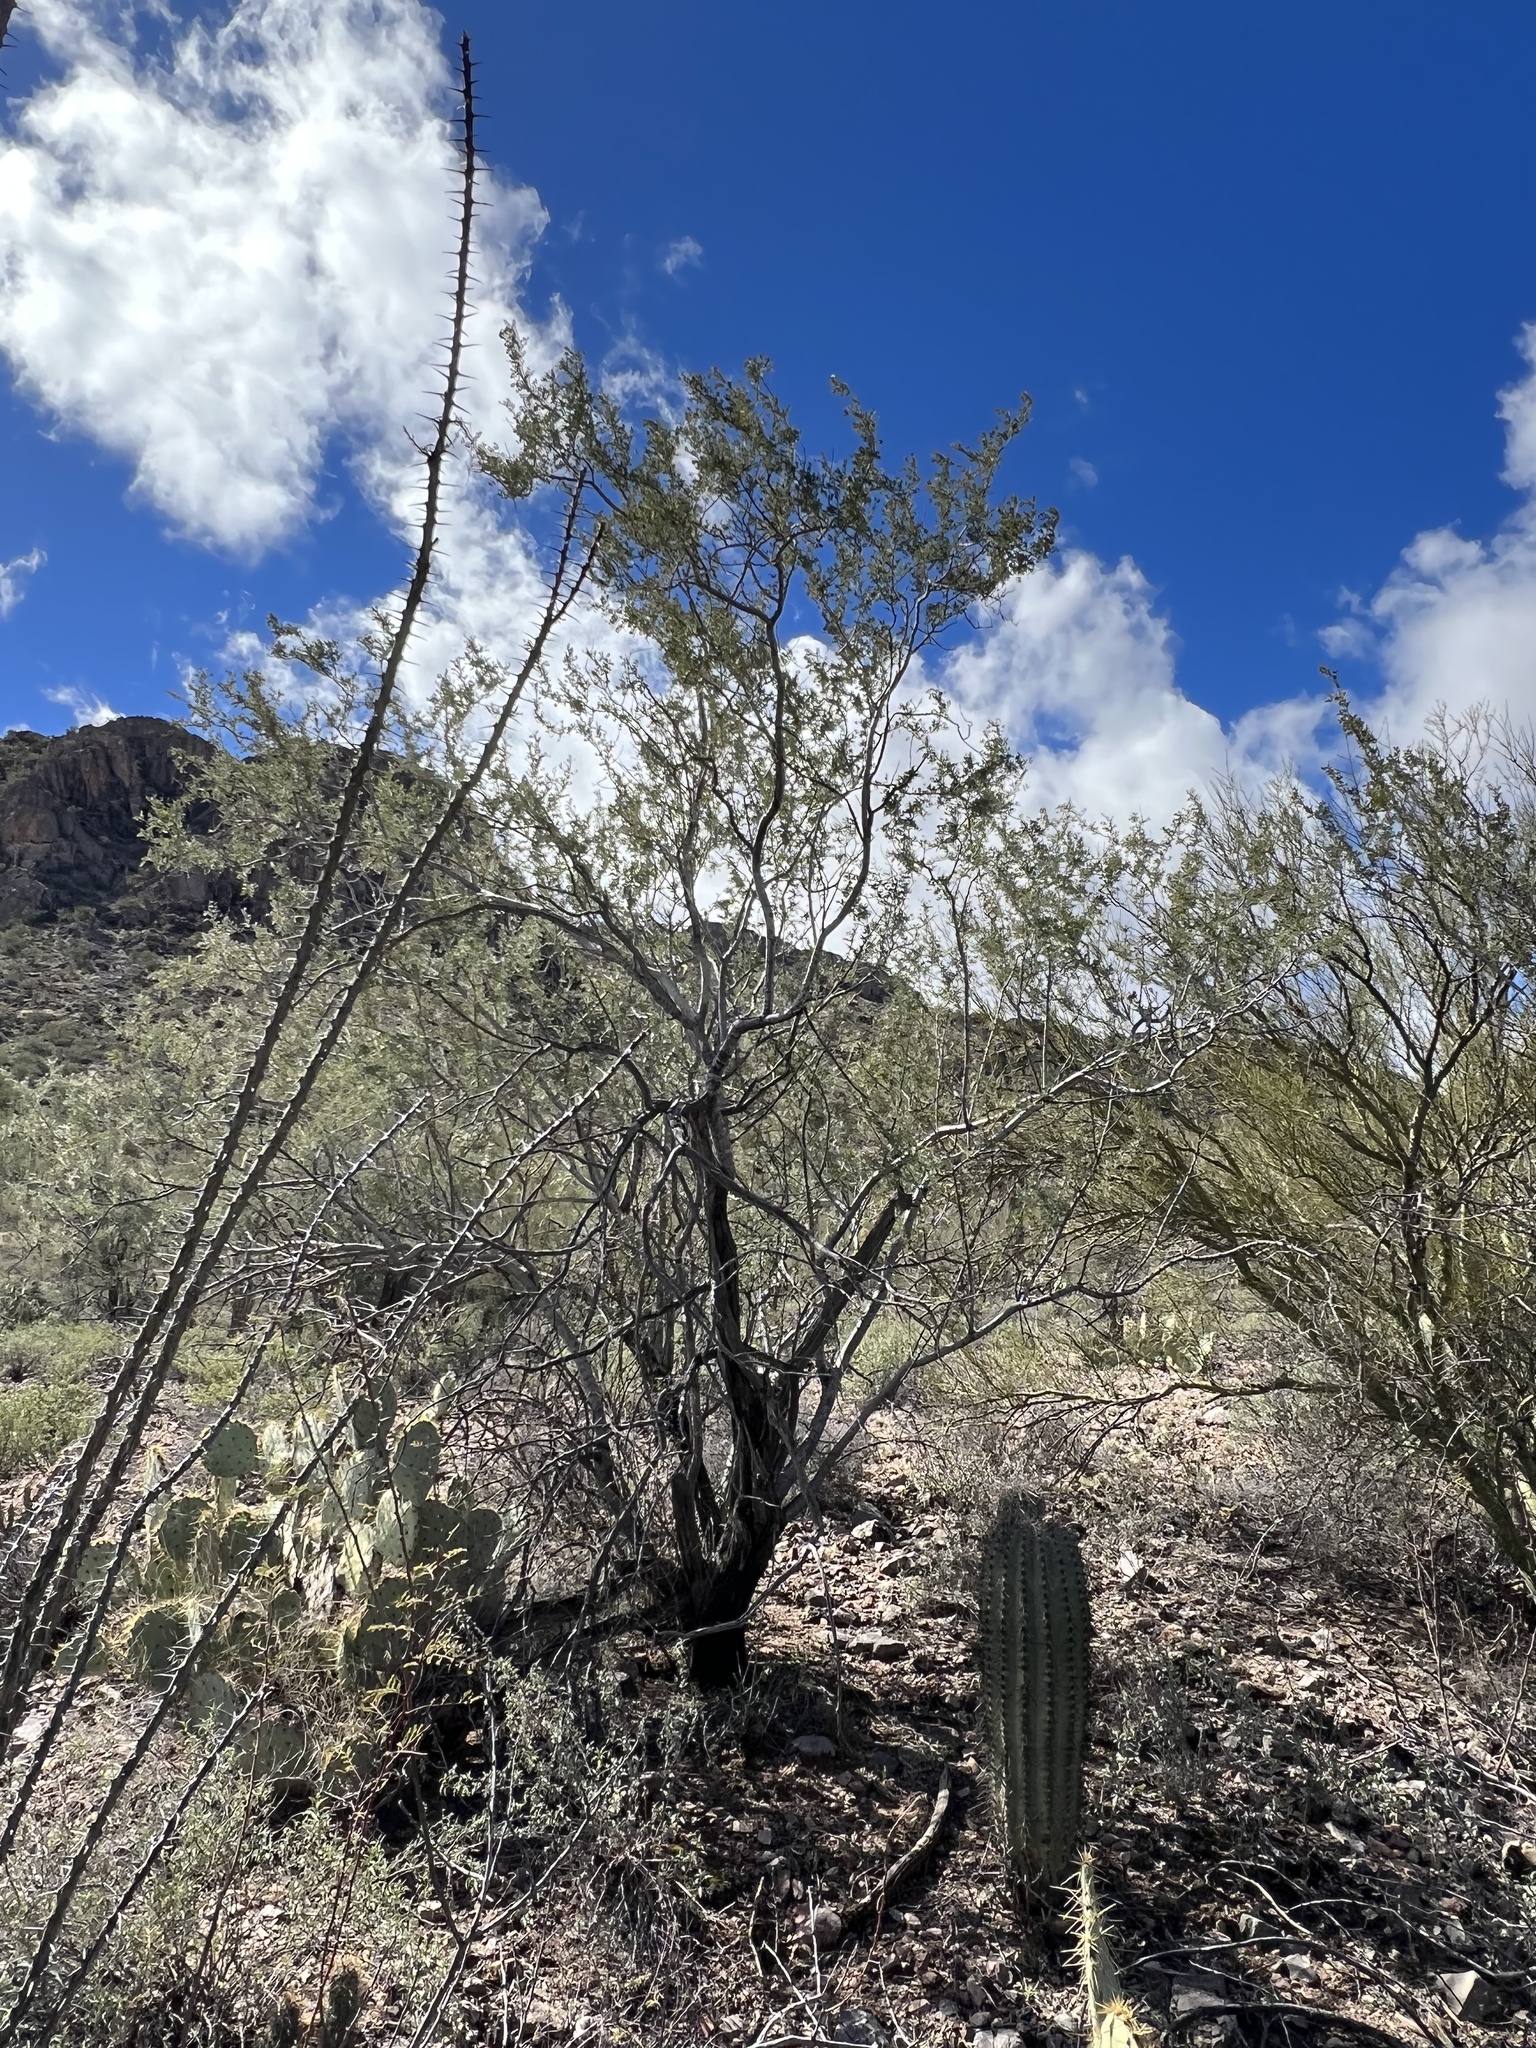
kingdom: Plantae
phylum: Tracheophyta
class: Magnoliopsida
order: Fabales
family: Fabaceae
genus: Olneya
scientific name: Olneya tesota
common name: Desert ironwood
